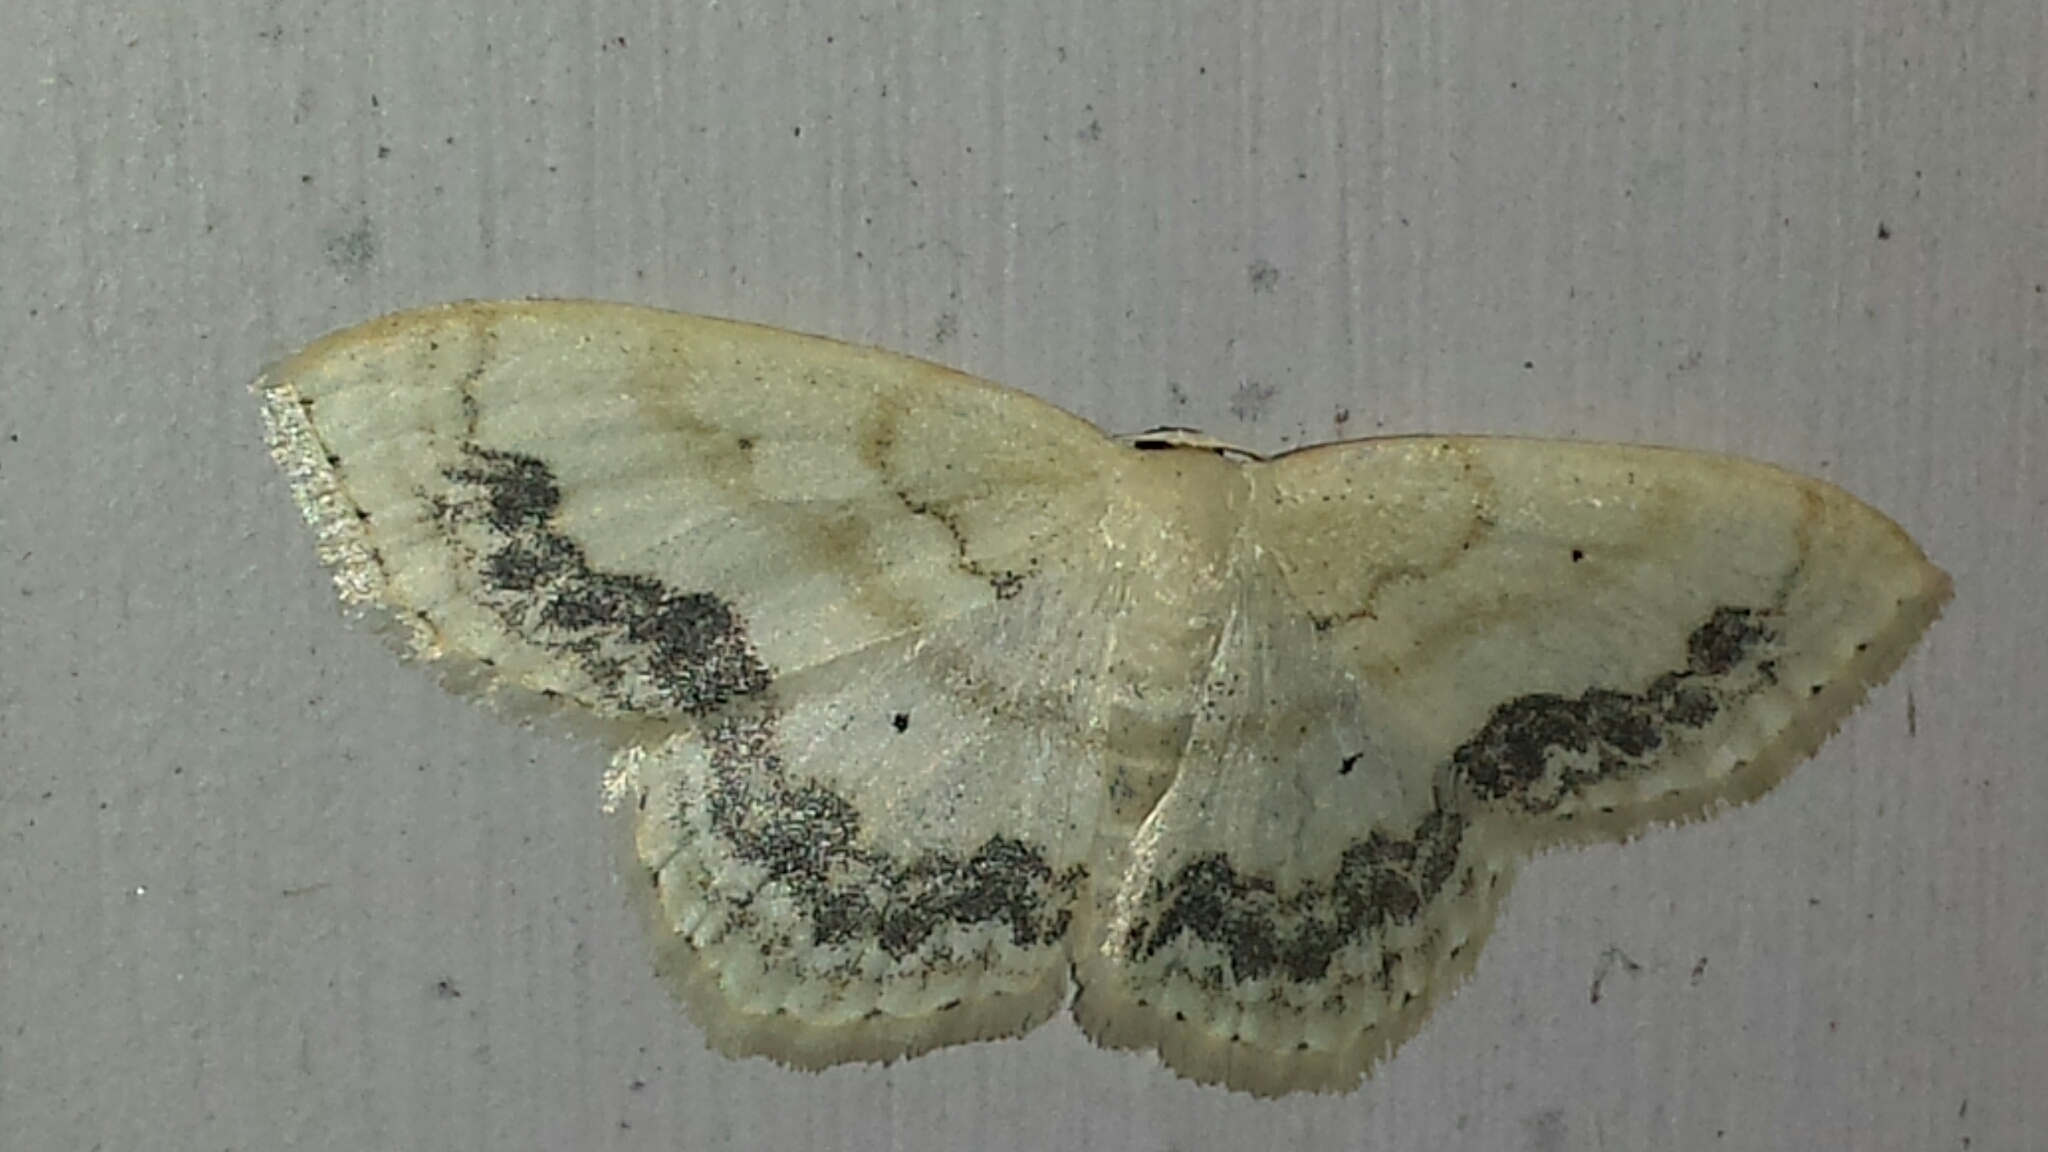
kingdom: Animalia
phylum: Arthropoda
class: Insecta
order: Lepidoptera
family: Geometridae
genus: Scopula
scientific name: Scopula limboundata
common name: Large lace border
